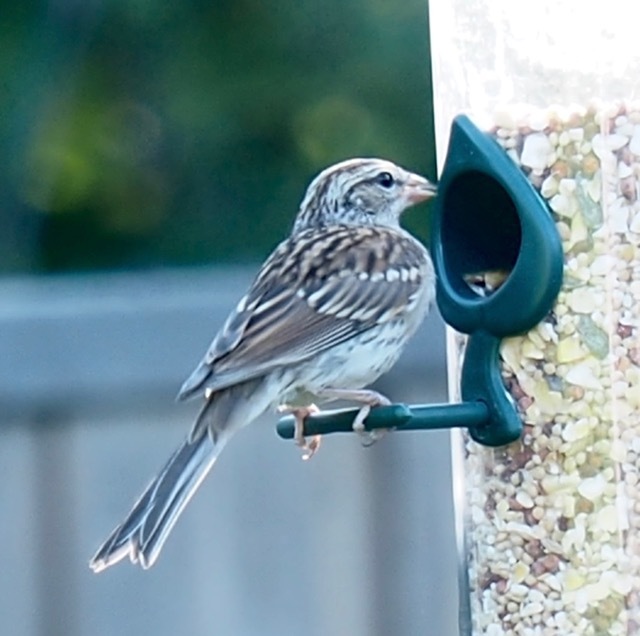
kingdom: Animalia
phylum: Chordata
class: Aves
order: Passeriformes
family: Passerellidae
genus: Spizella
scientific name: Spizella passerina
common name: Chipping sparrow
